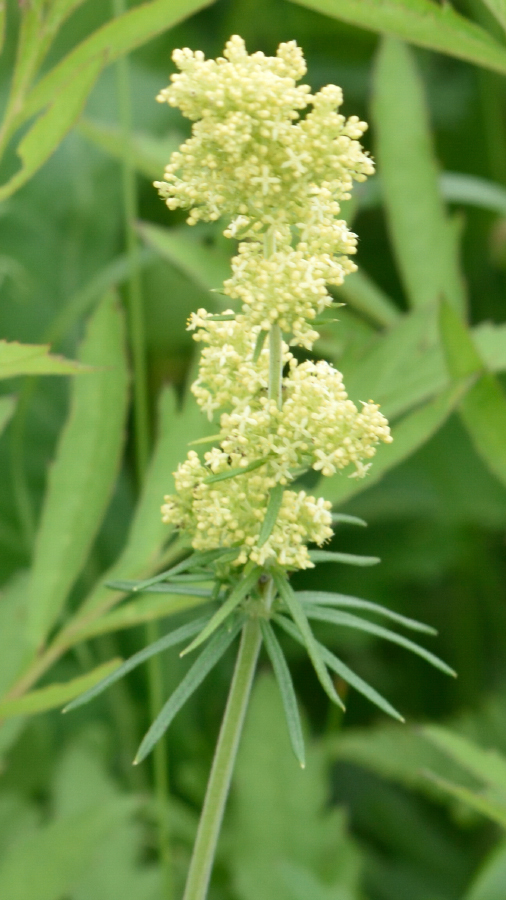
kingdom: Plantae
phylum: Tracheophyta
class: Magnoliopsida
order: Gentianales
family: Rubiaceae
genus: Galium
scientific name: Galium verum
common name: Lady's bedstraw
